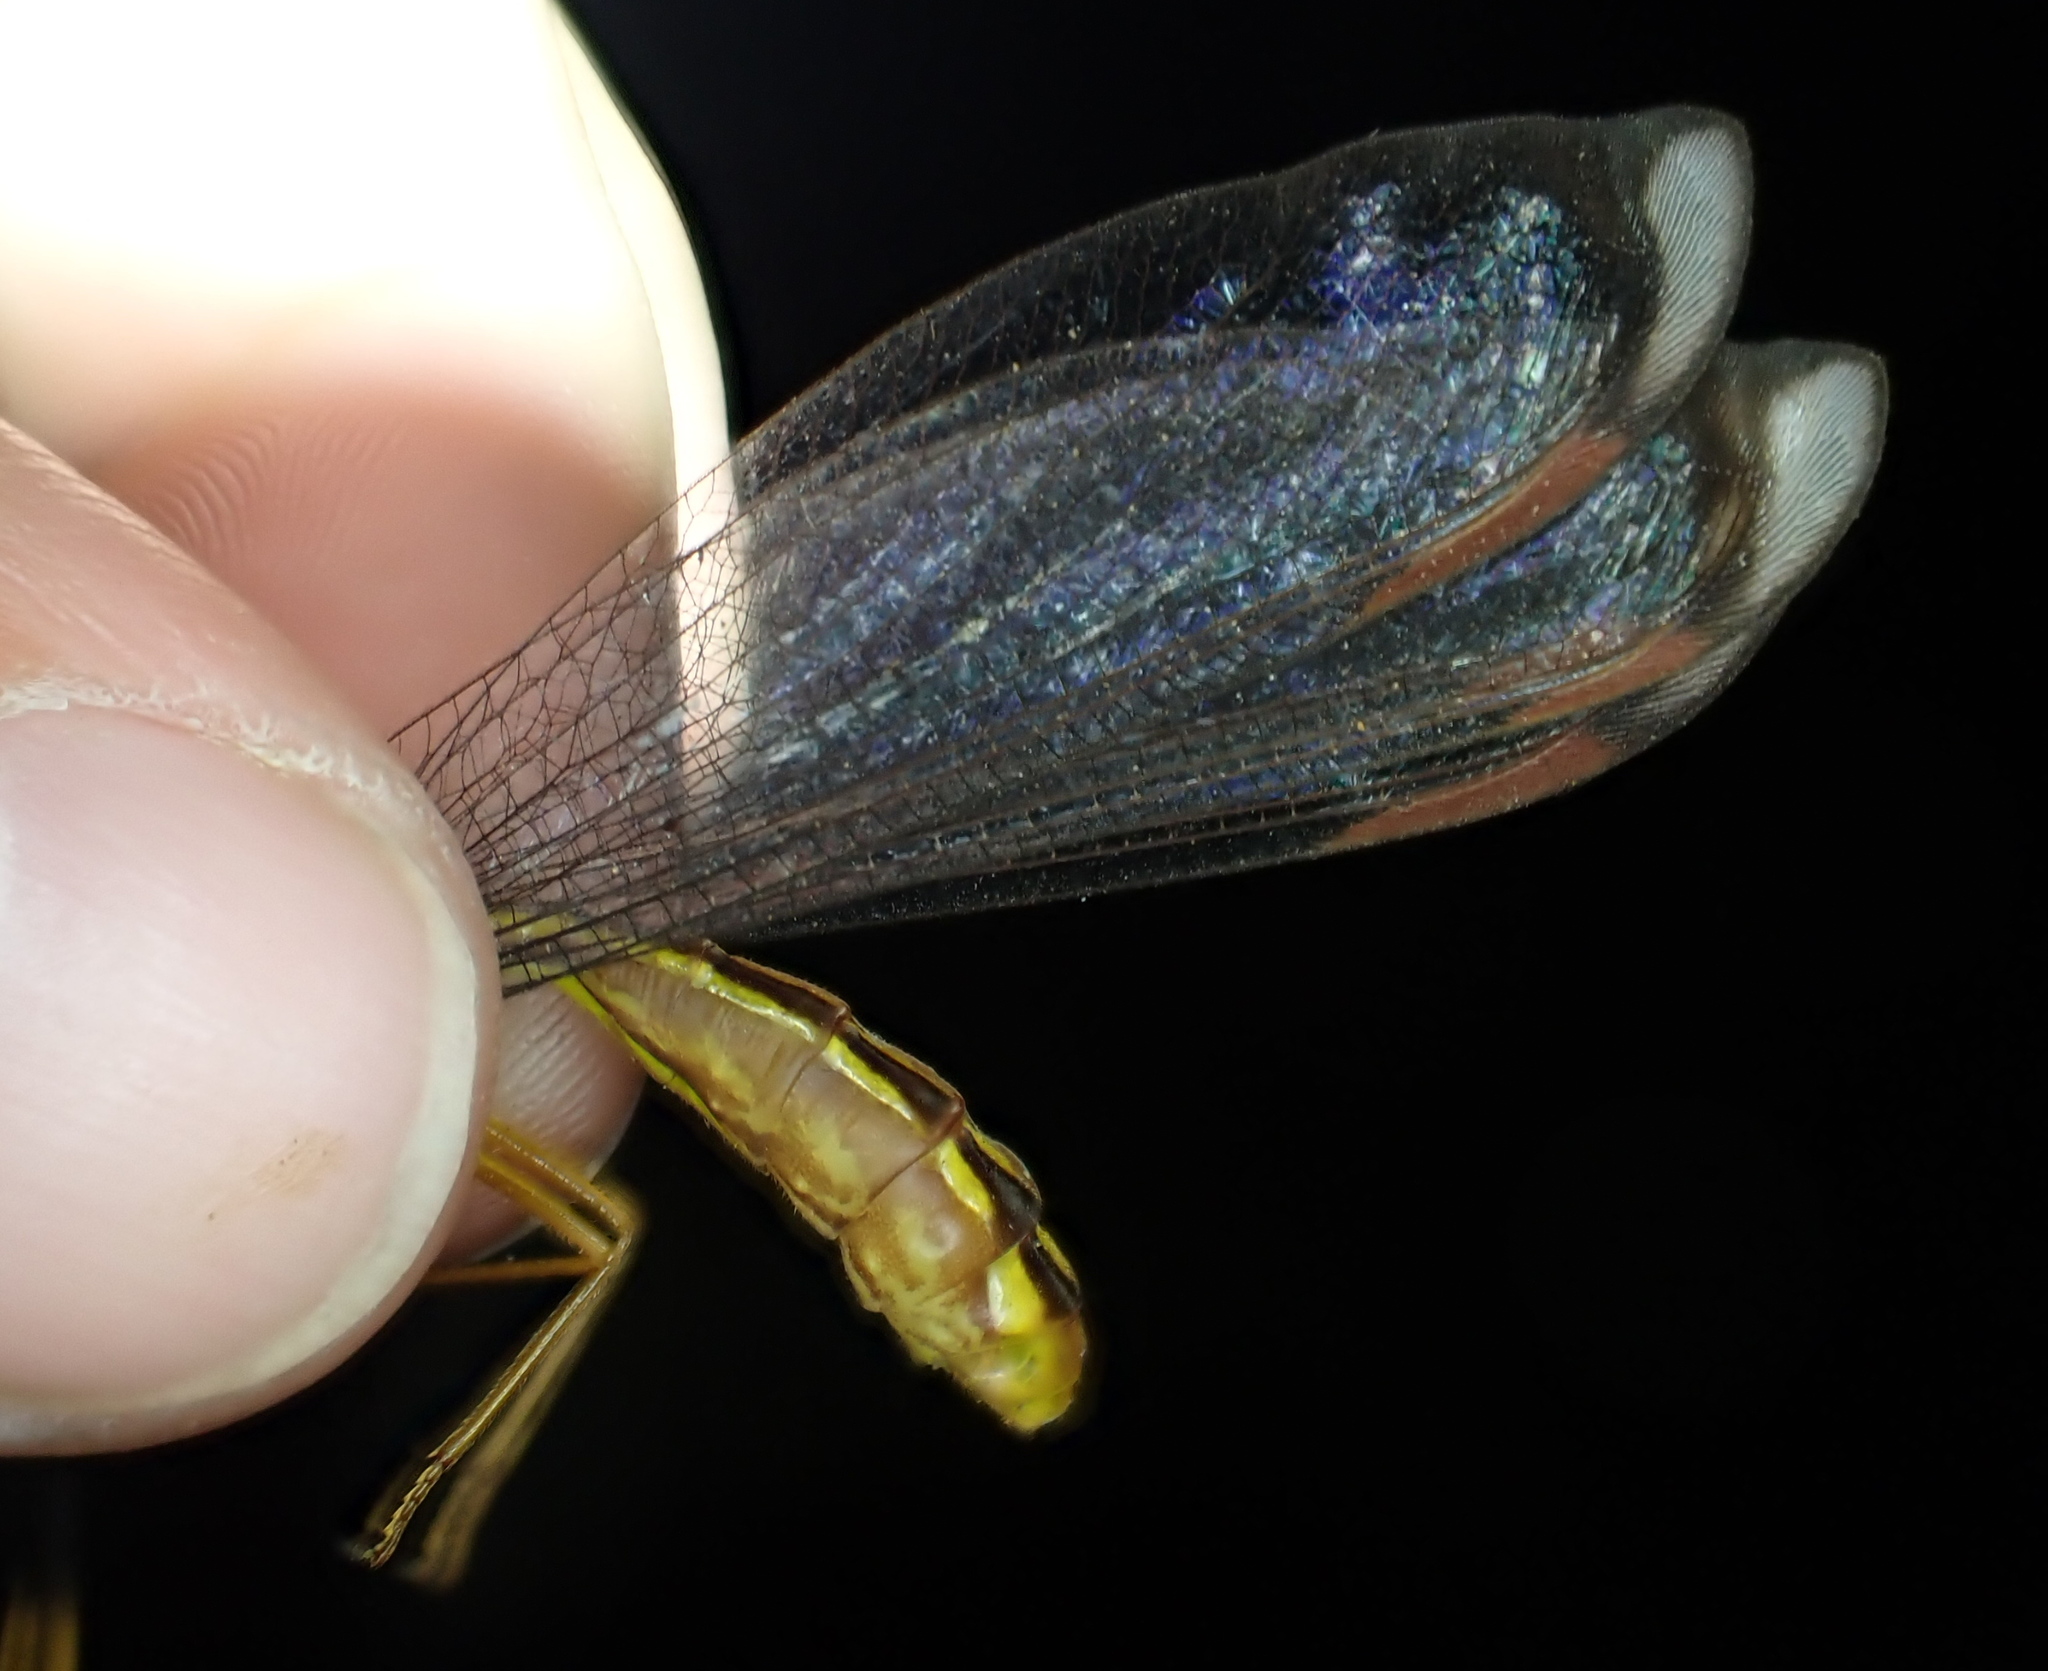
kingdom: Animalia
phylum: Arthropoda
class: Insecta
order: Neuroptera
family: Nymphidae
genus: Nymphes
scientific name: Nymphes myrmeleonoides
